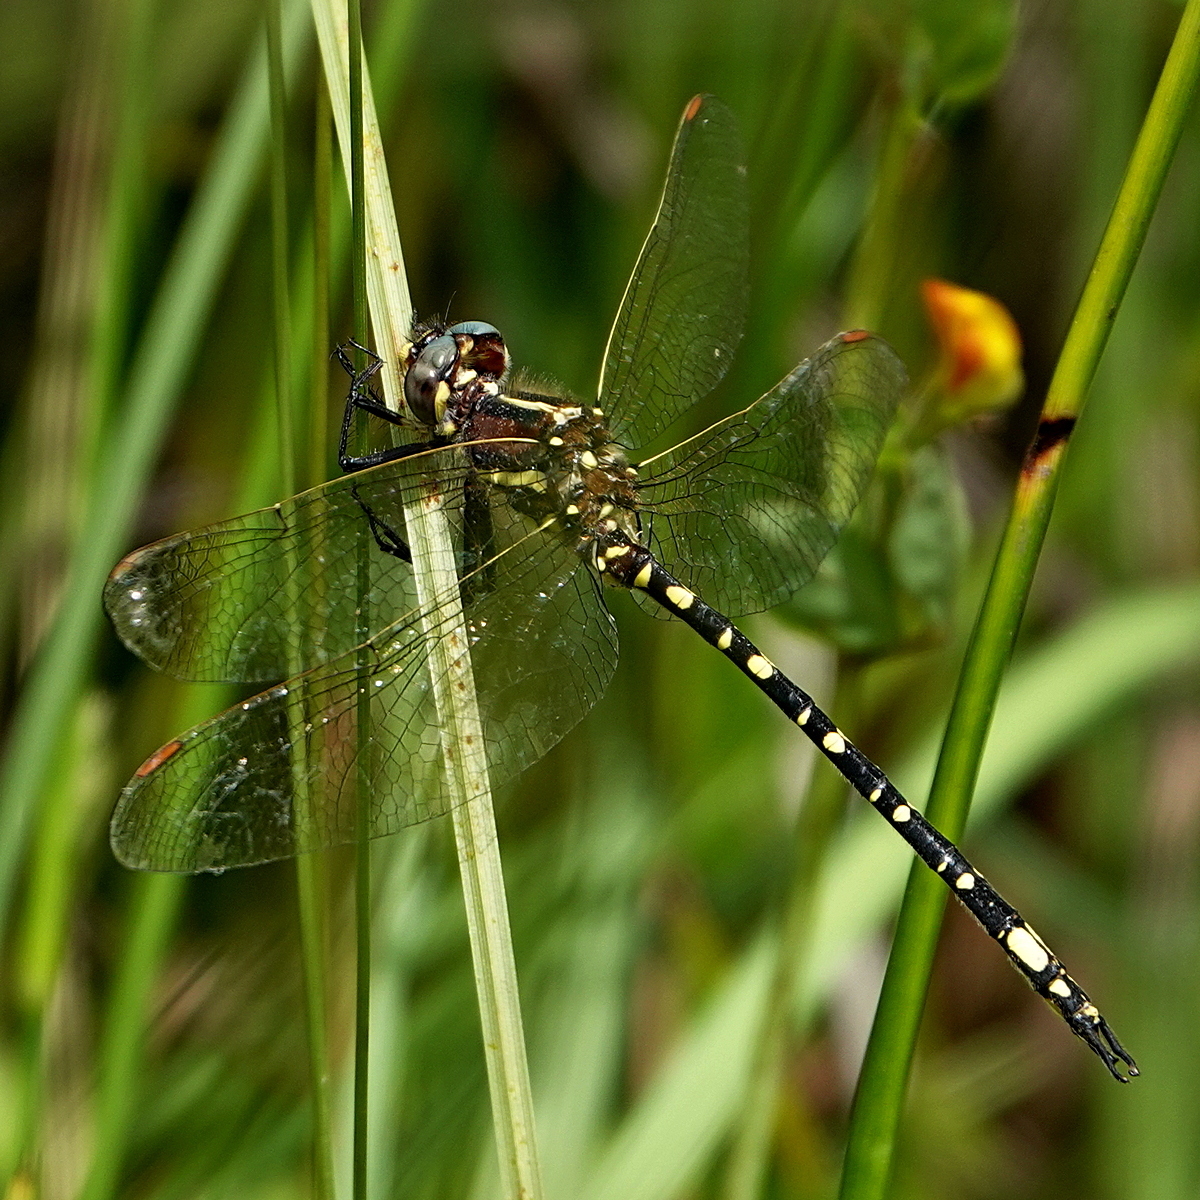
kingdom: Animalia
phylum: Arthropoda
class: Insecta
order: Odonata
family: Synthemistidae
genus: Synthemis
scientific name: Synthemis eustalacta
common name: Swamp tigertail
